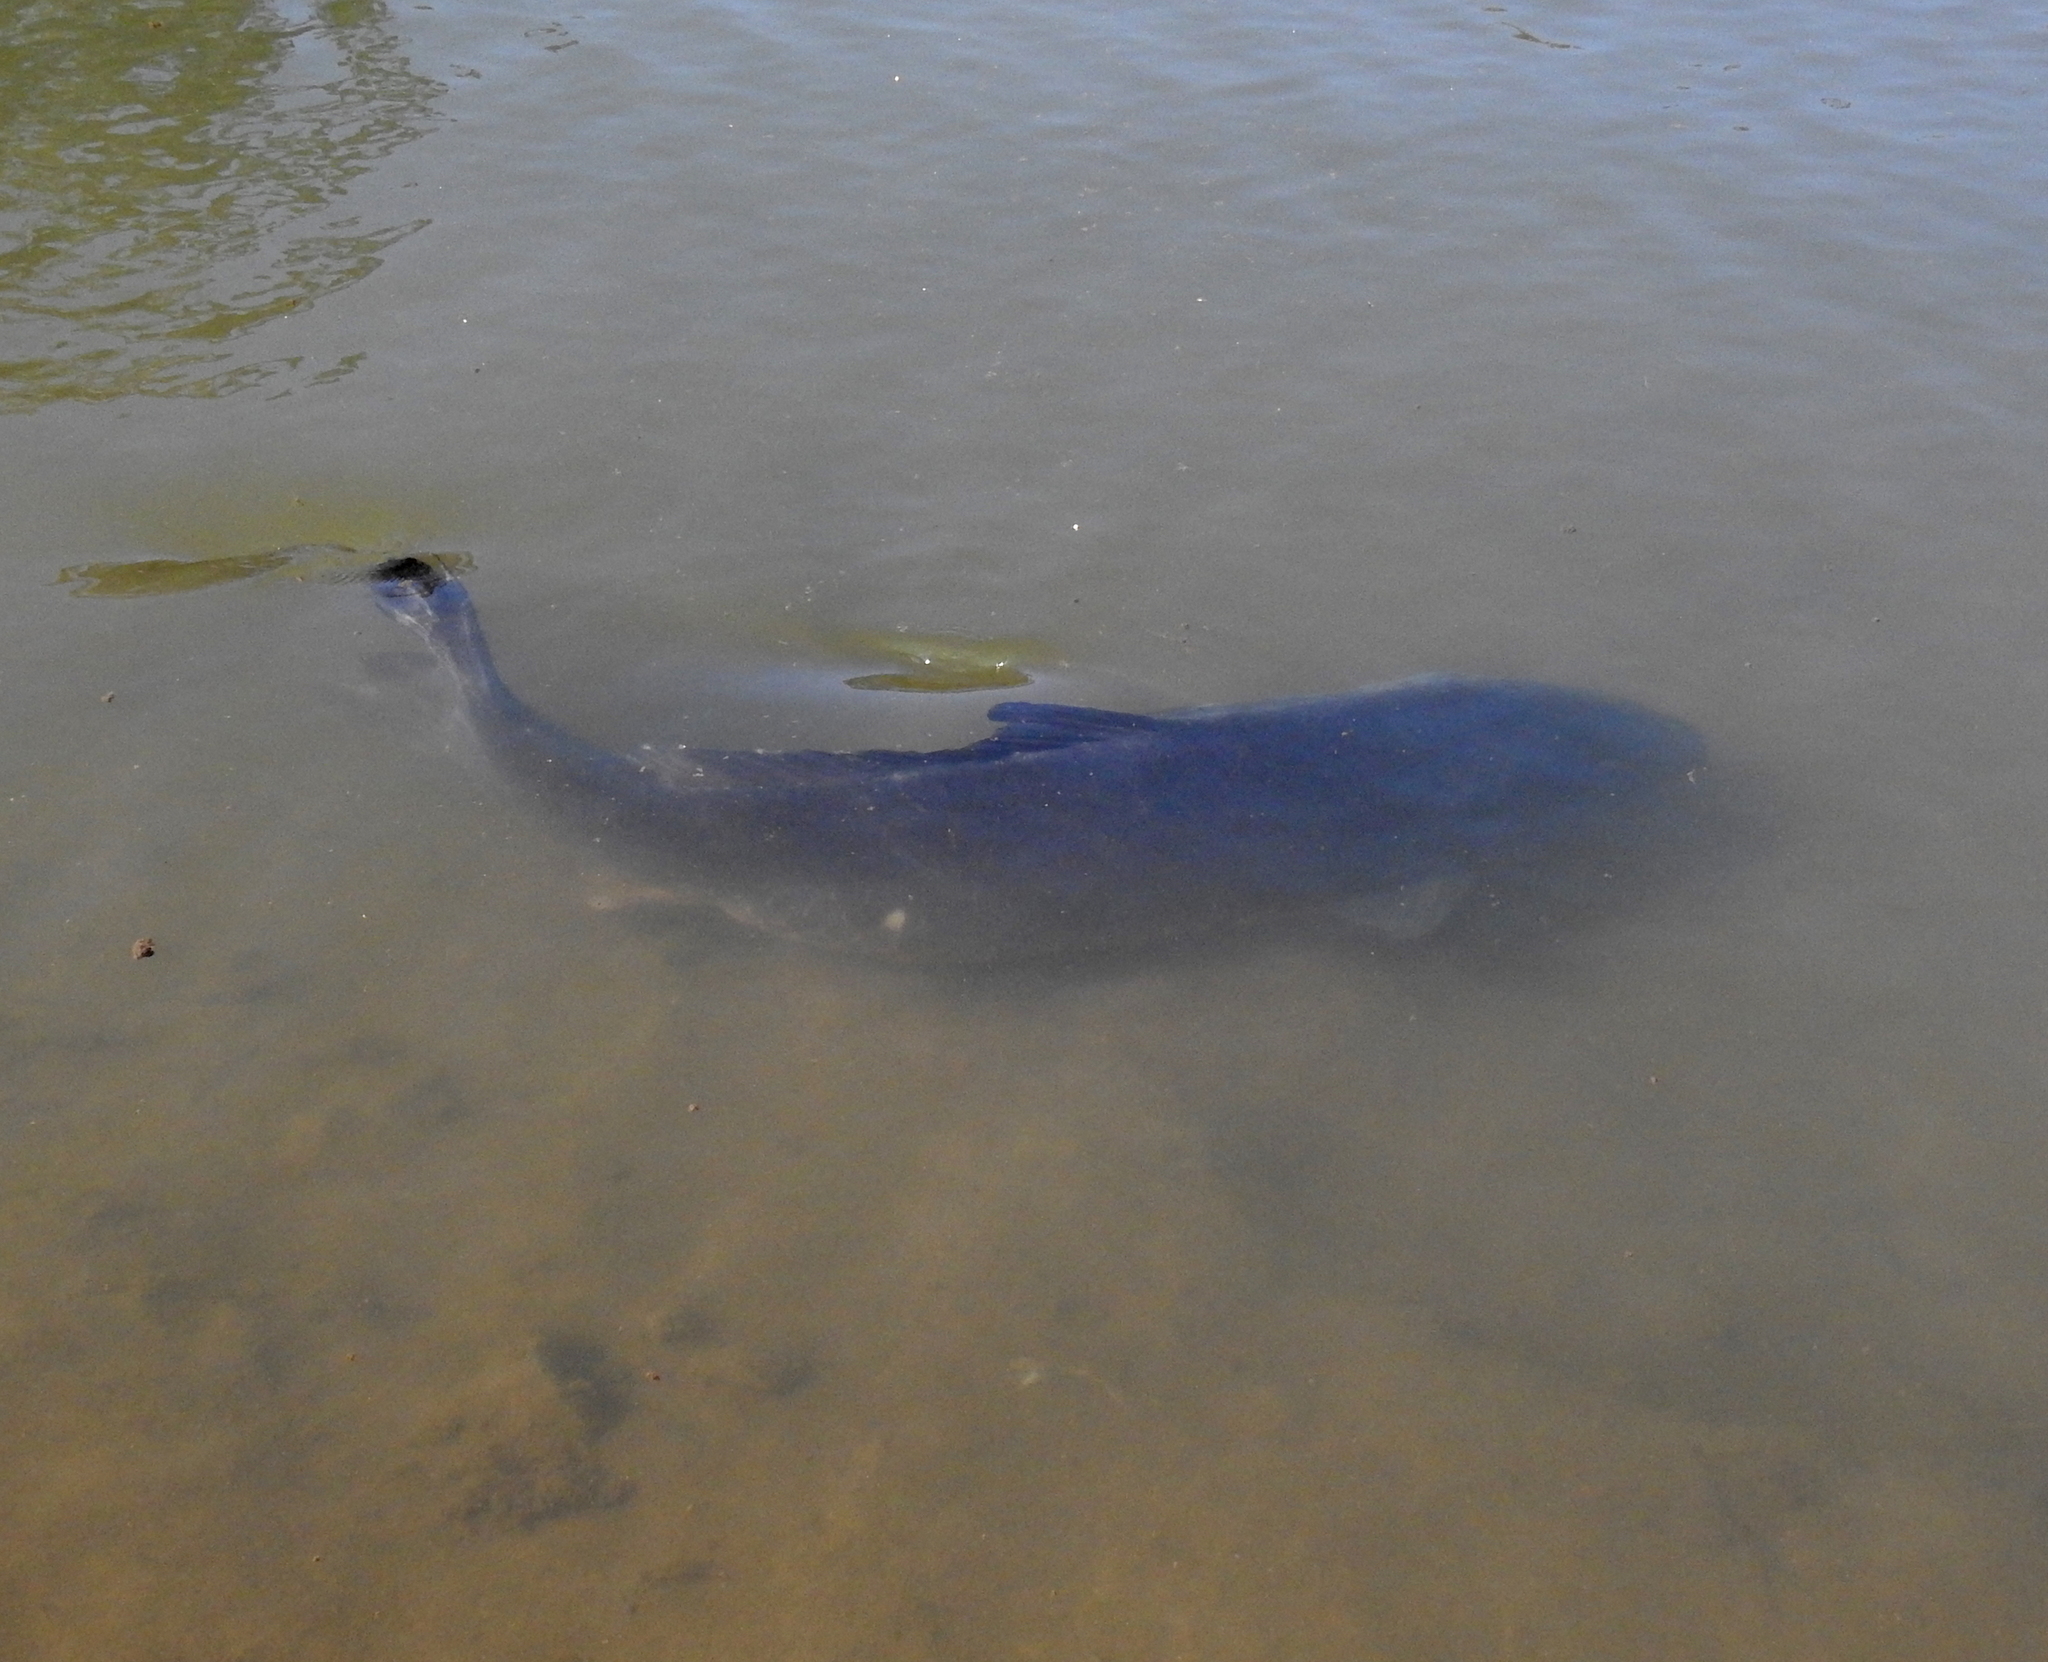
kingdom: Animalia
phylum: Chordata
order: Cypriniformes
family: Cyprinidae
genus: Cyprinus
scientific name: Cyprinus carpio
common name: Common carp
